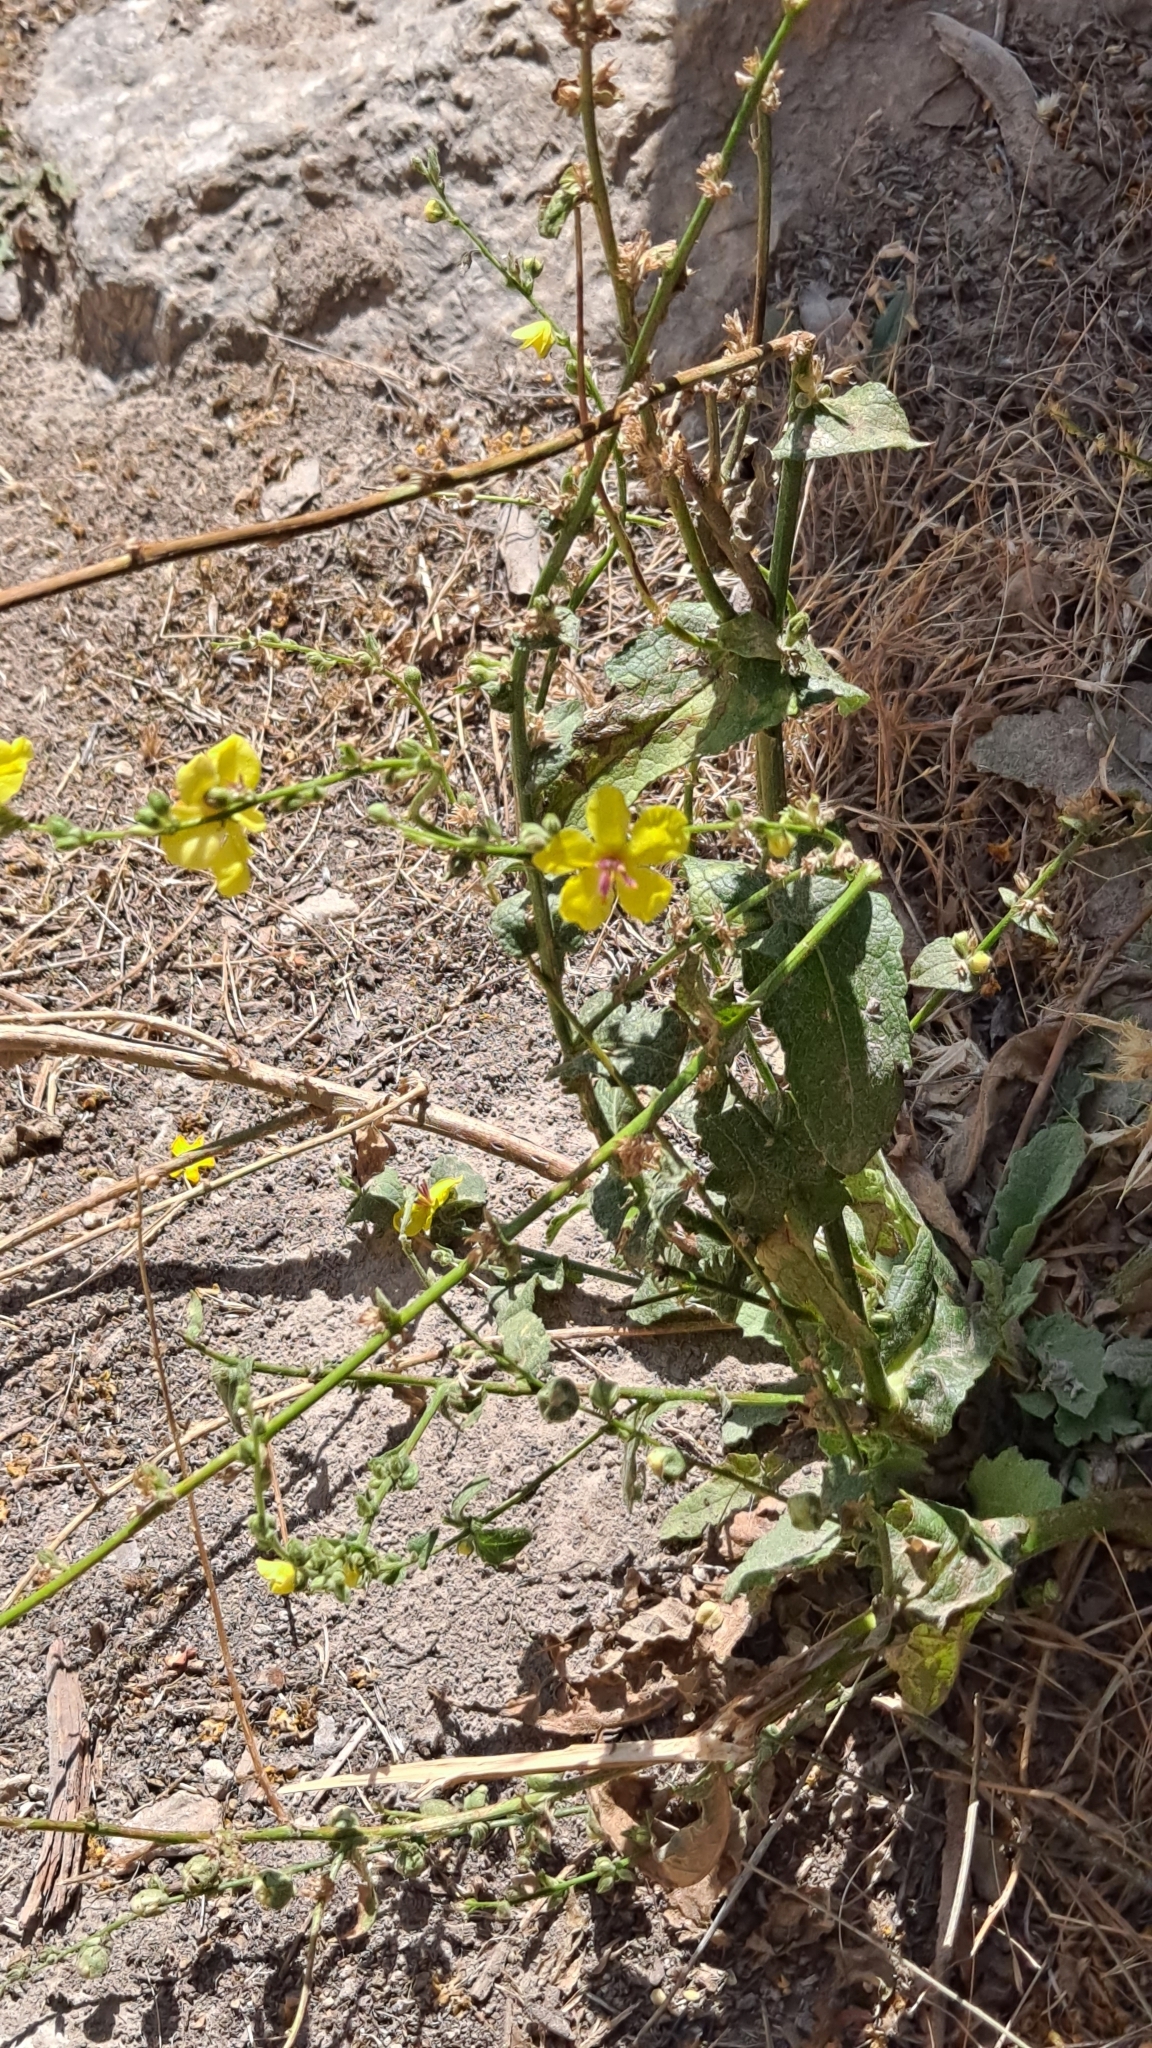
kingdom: Plantae
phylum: Tracheophyta
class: Magnoliopsida
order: Lamiales
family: Scrophulariaceae
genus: Verbascum
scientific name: Verbascum sinuatum
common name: Wavyleaf mullein
